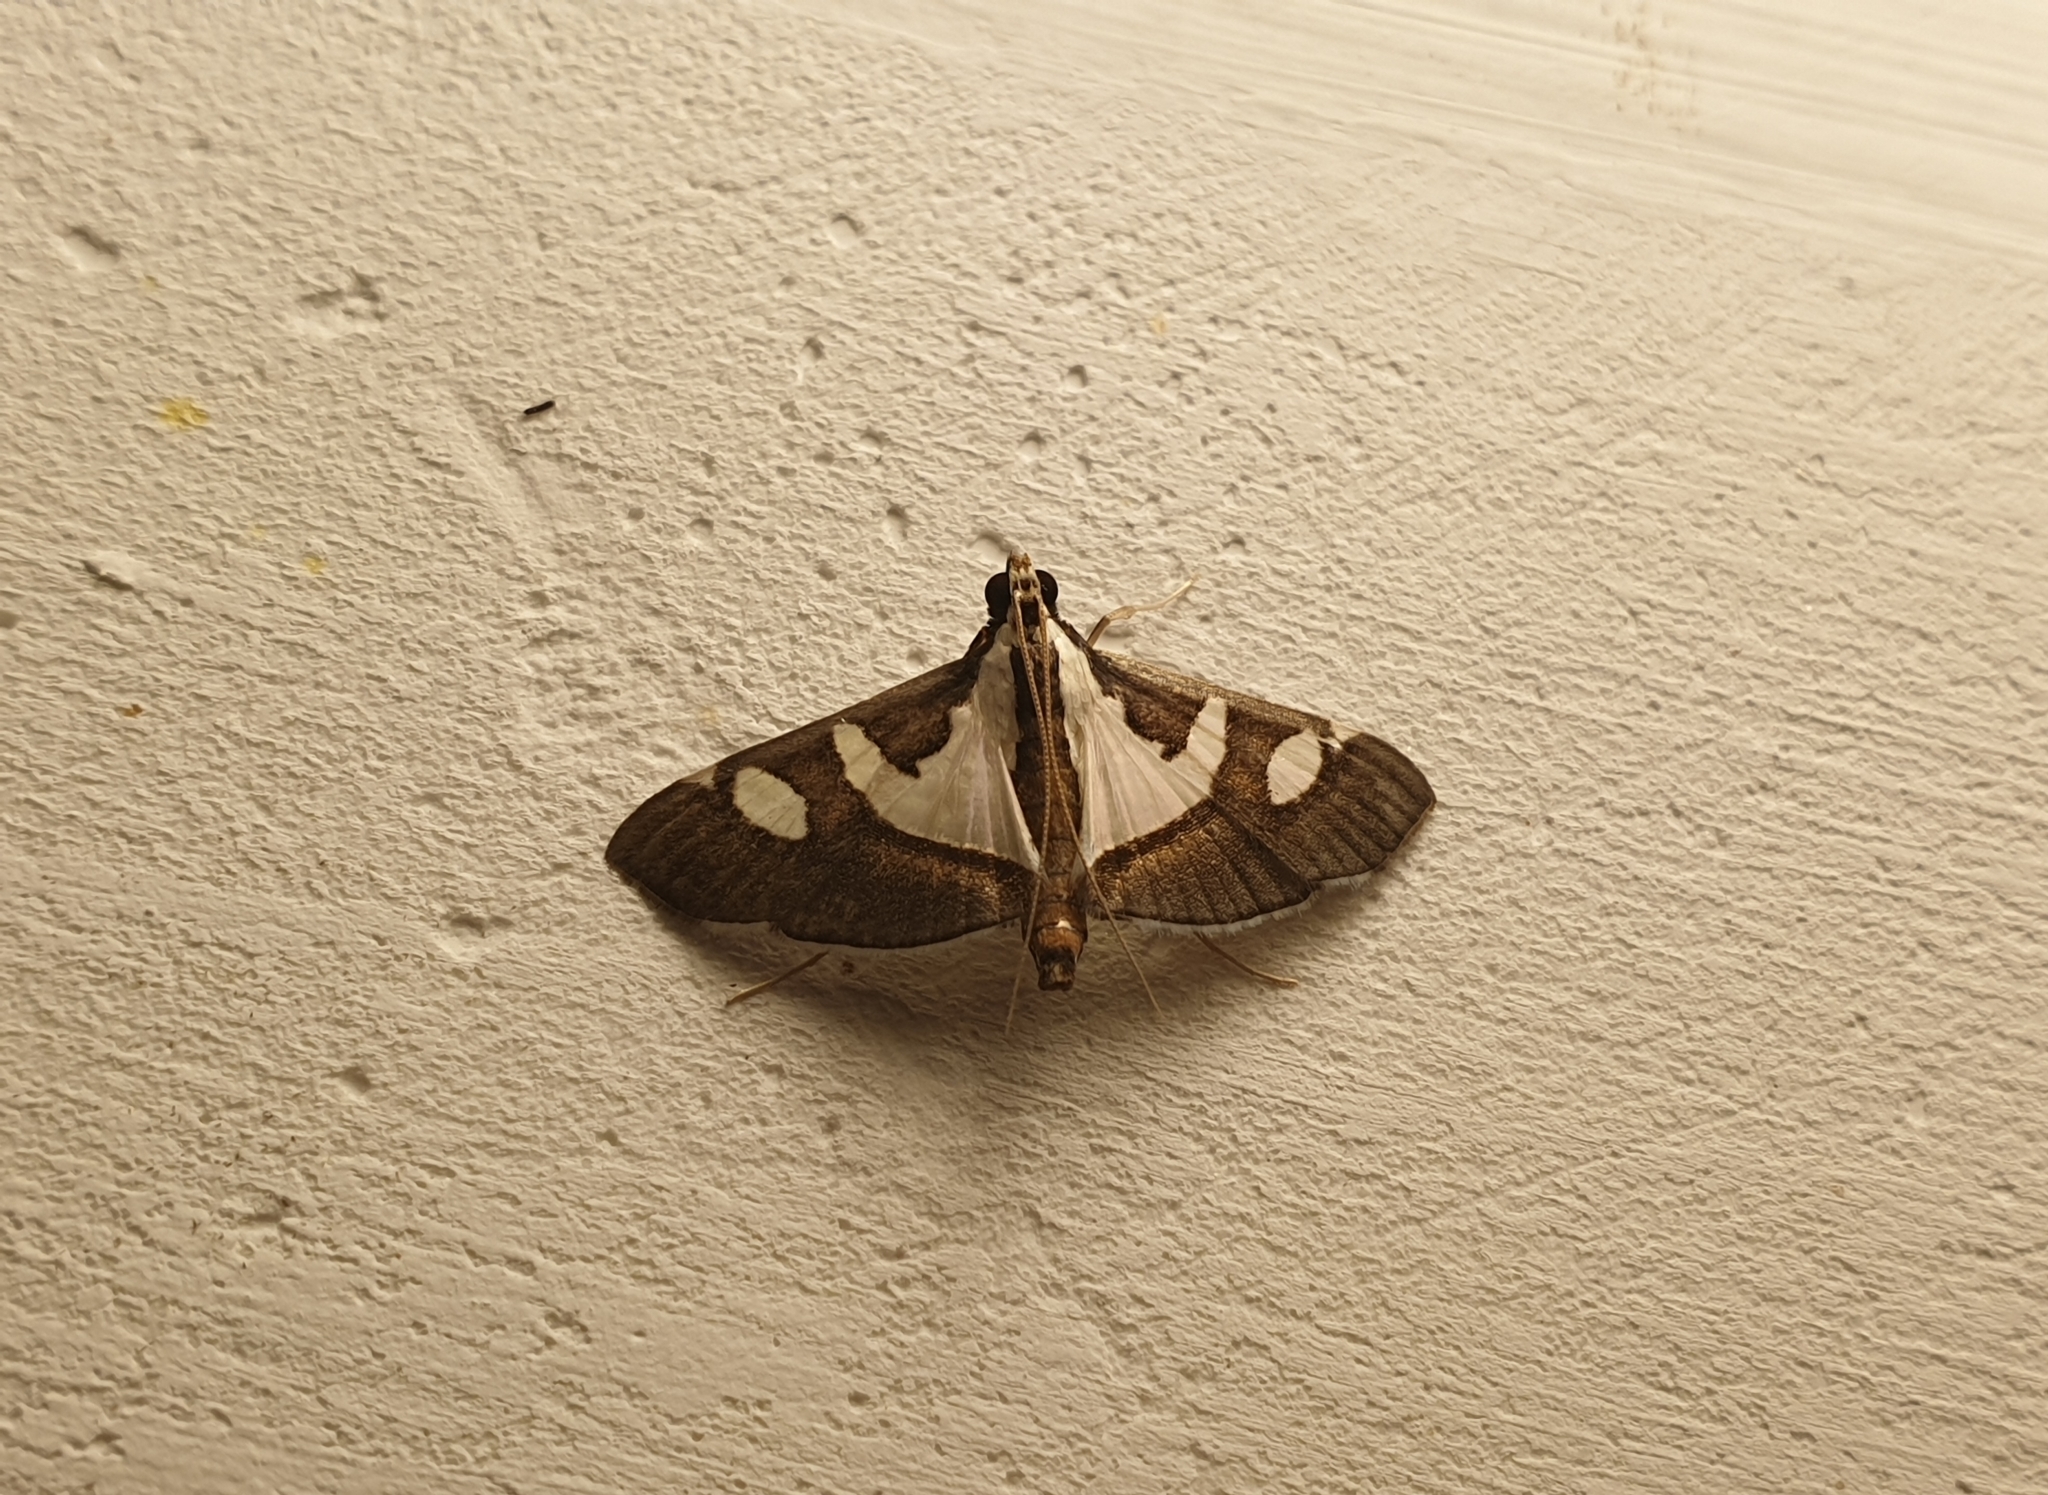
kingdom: Animalia
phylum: Arthropoda
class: Insecta
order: Lepidoptera
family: Crambidae
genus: Glyphodes
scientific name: Glyphodes bicolor
